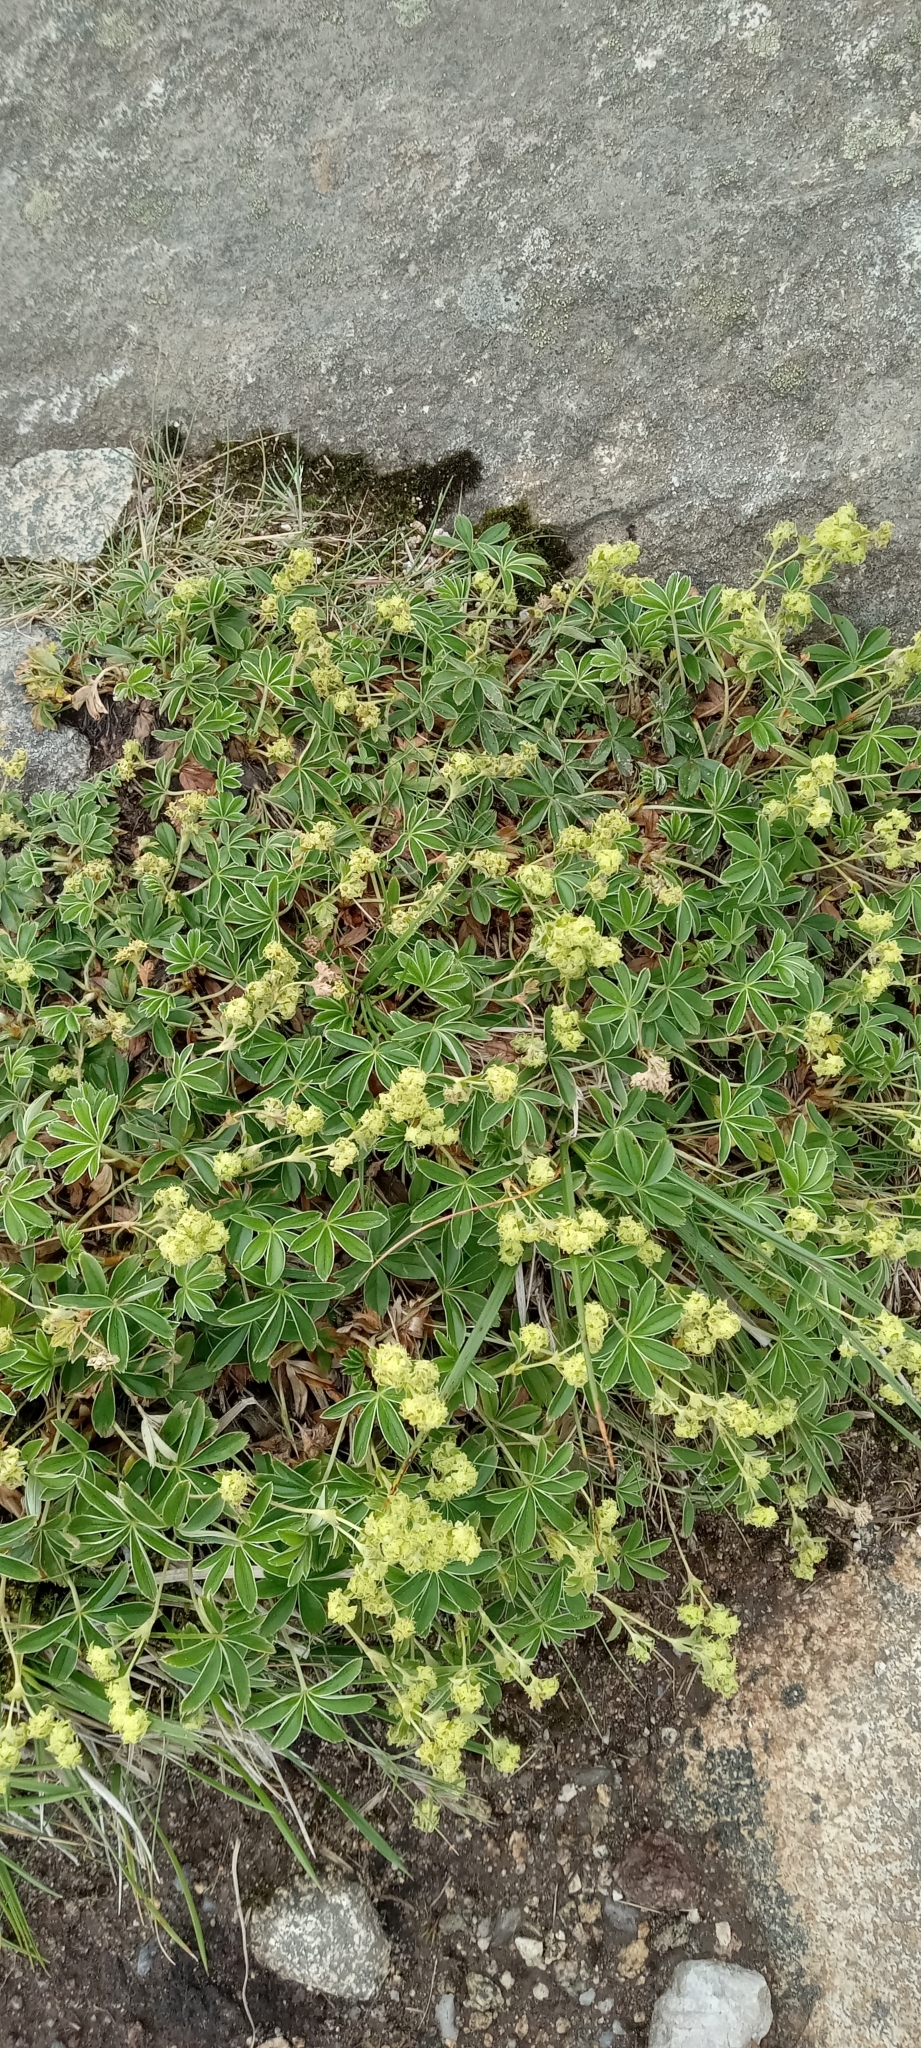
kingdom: Plantae
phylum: Tracheophyta
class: Magnoliopsida
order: Rosales
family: Rosaceae
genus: Alchemilla
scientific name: Alchemilla alpina
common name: Alpine lady's-mantle
